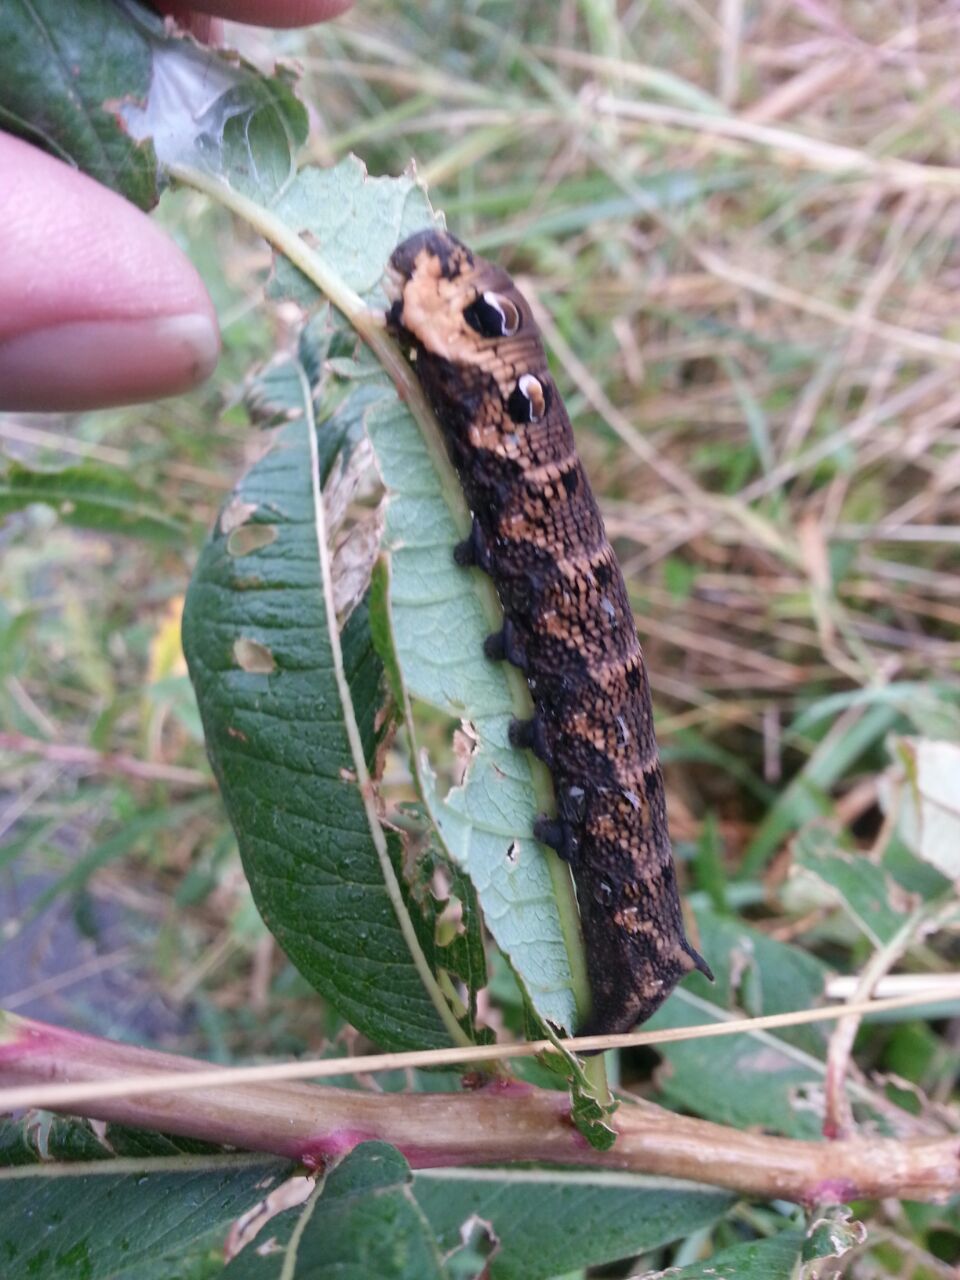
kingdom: Animalia
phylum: Arthropoda
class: Insecta
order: Lepidoptera
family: Sphingidae
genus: Deilephila
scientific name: Deilephila elpenor
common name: Elephant hawk-moth
